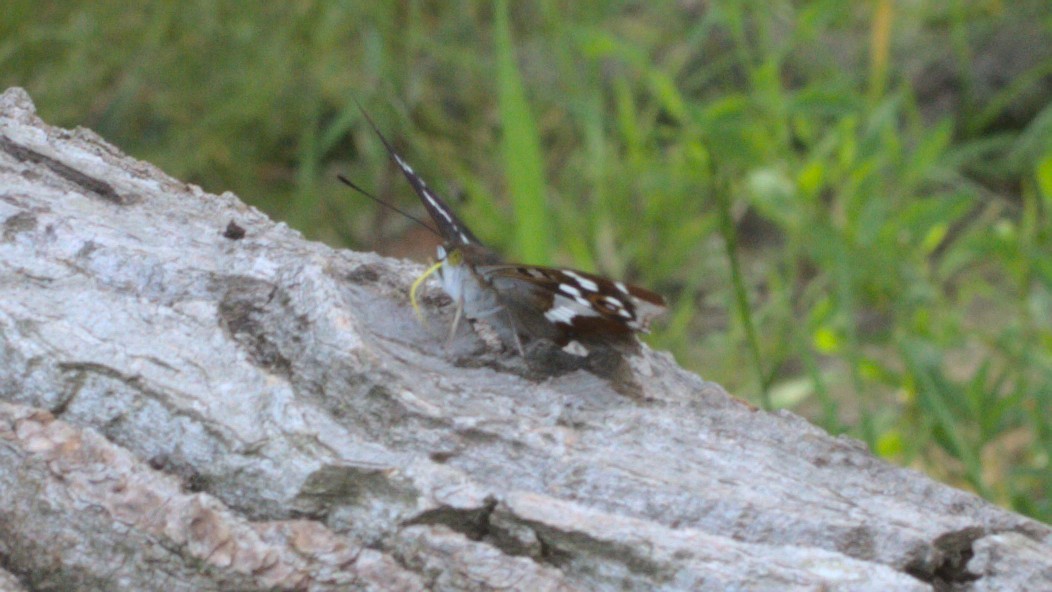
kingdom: Animalia
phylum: Arthropoda
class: Insecta
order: Lepidoptera
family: Nymphalidae
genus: Apatura
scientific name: Apatura iris
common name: Purple emperor
